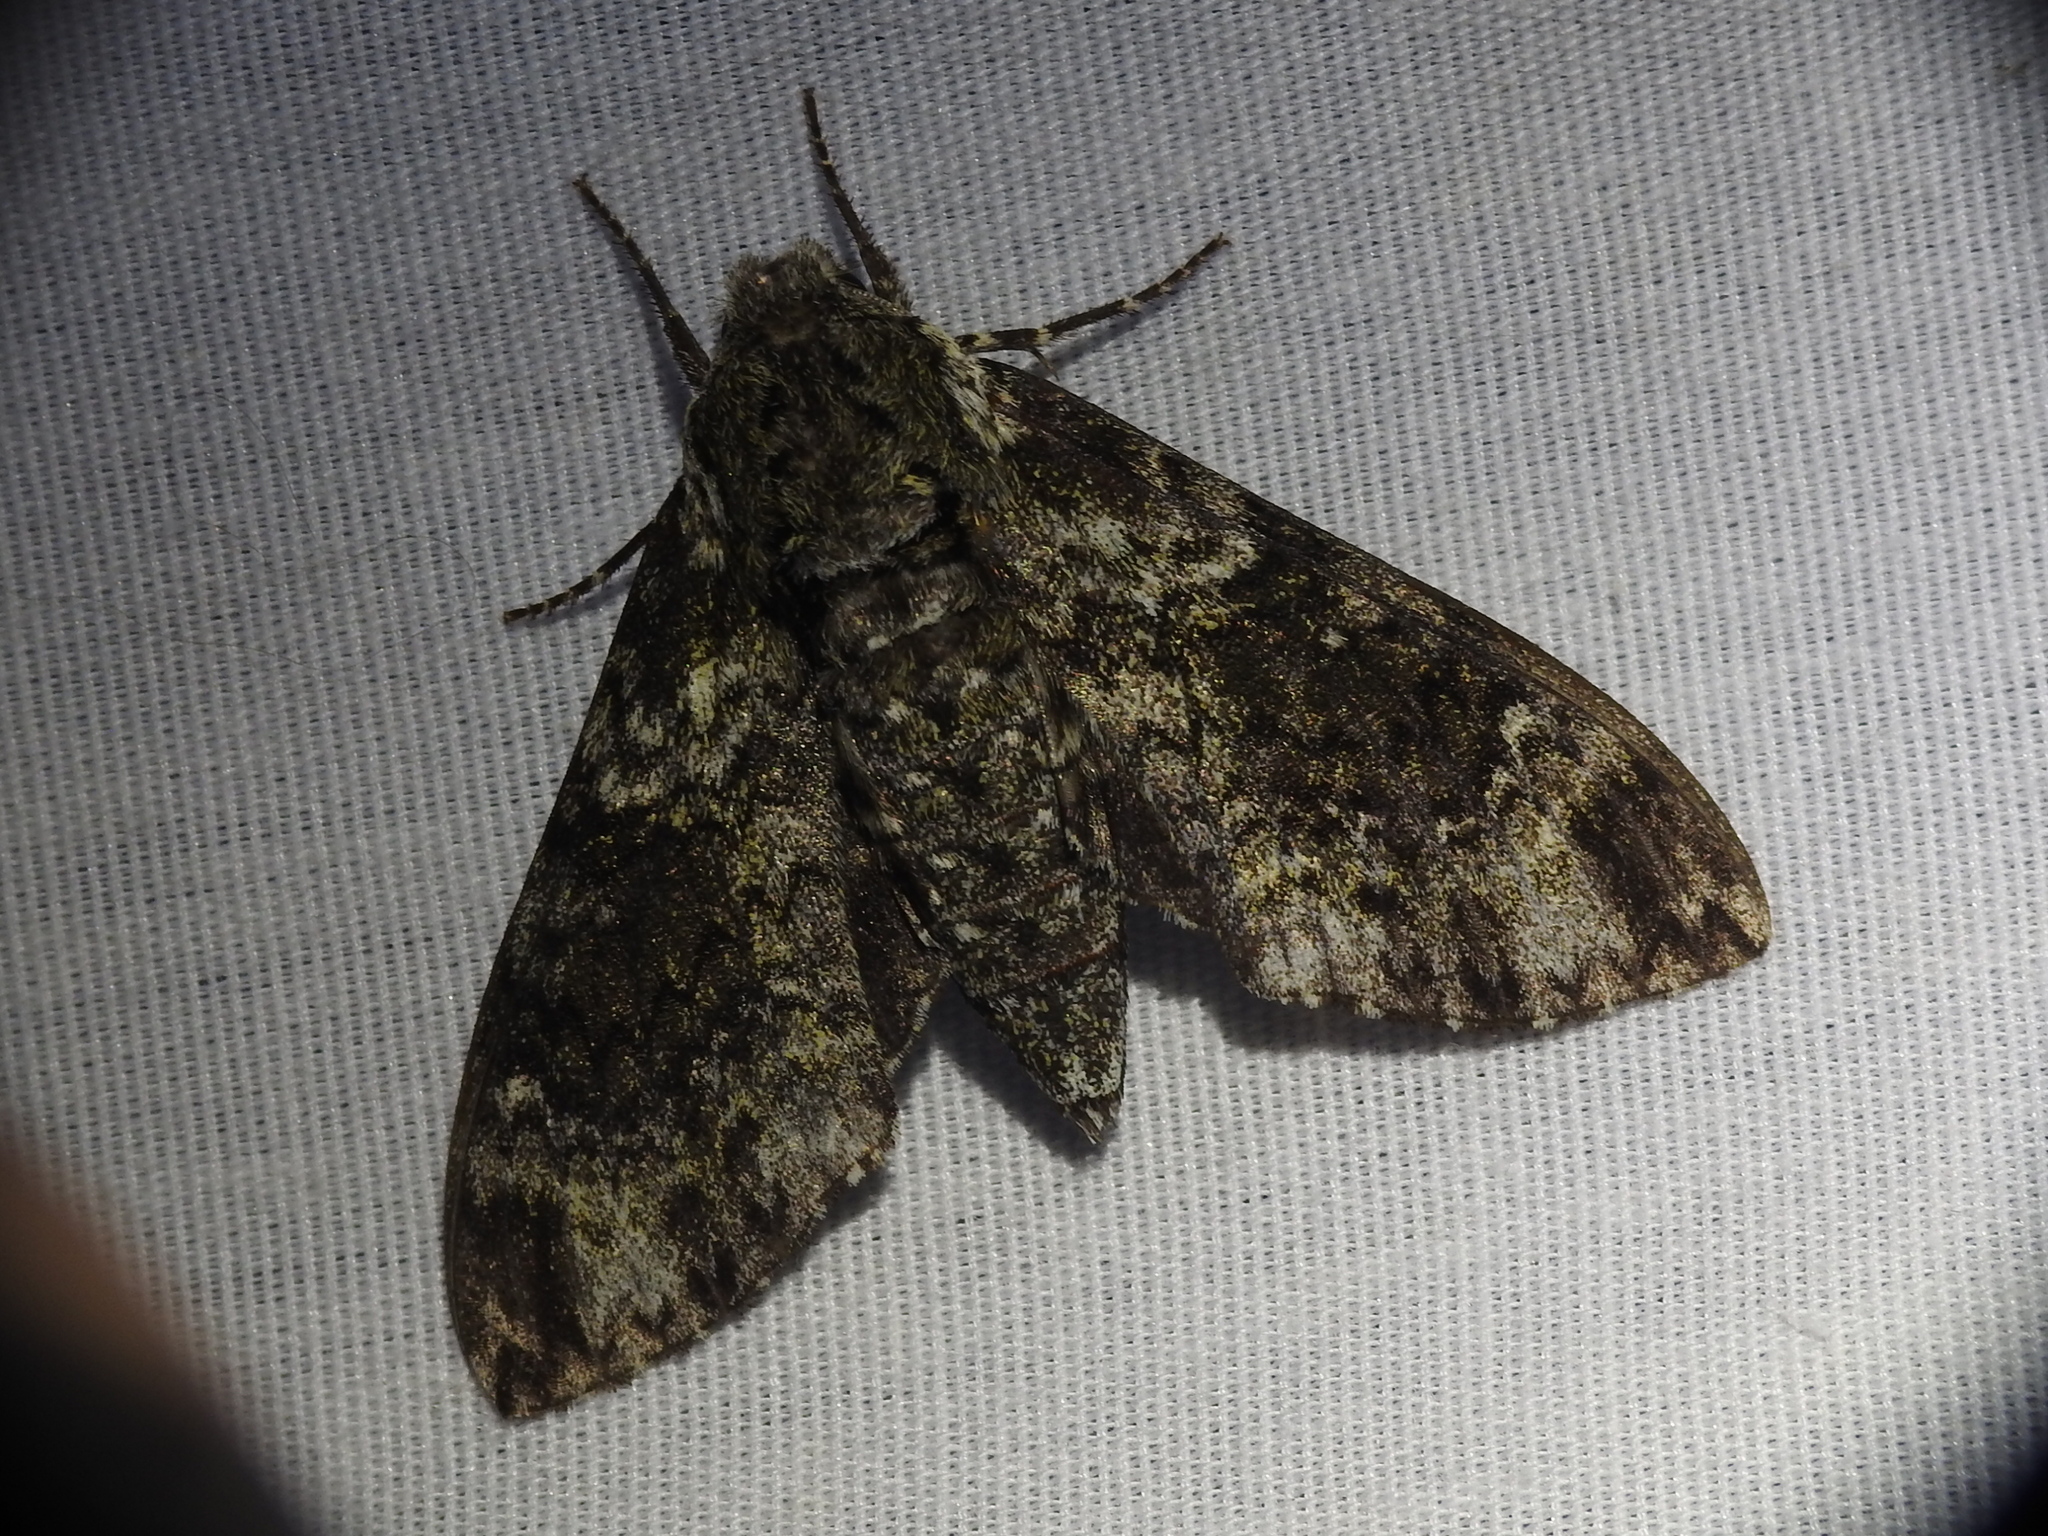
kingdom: Animalia
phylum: Arthropoda
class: Insecta
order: Lepidoptera
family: Sphingidae
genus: Dolba
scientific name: Dolba hyloeus
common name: Pawpaw sphinx
